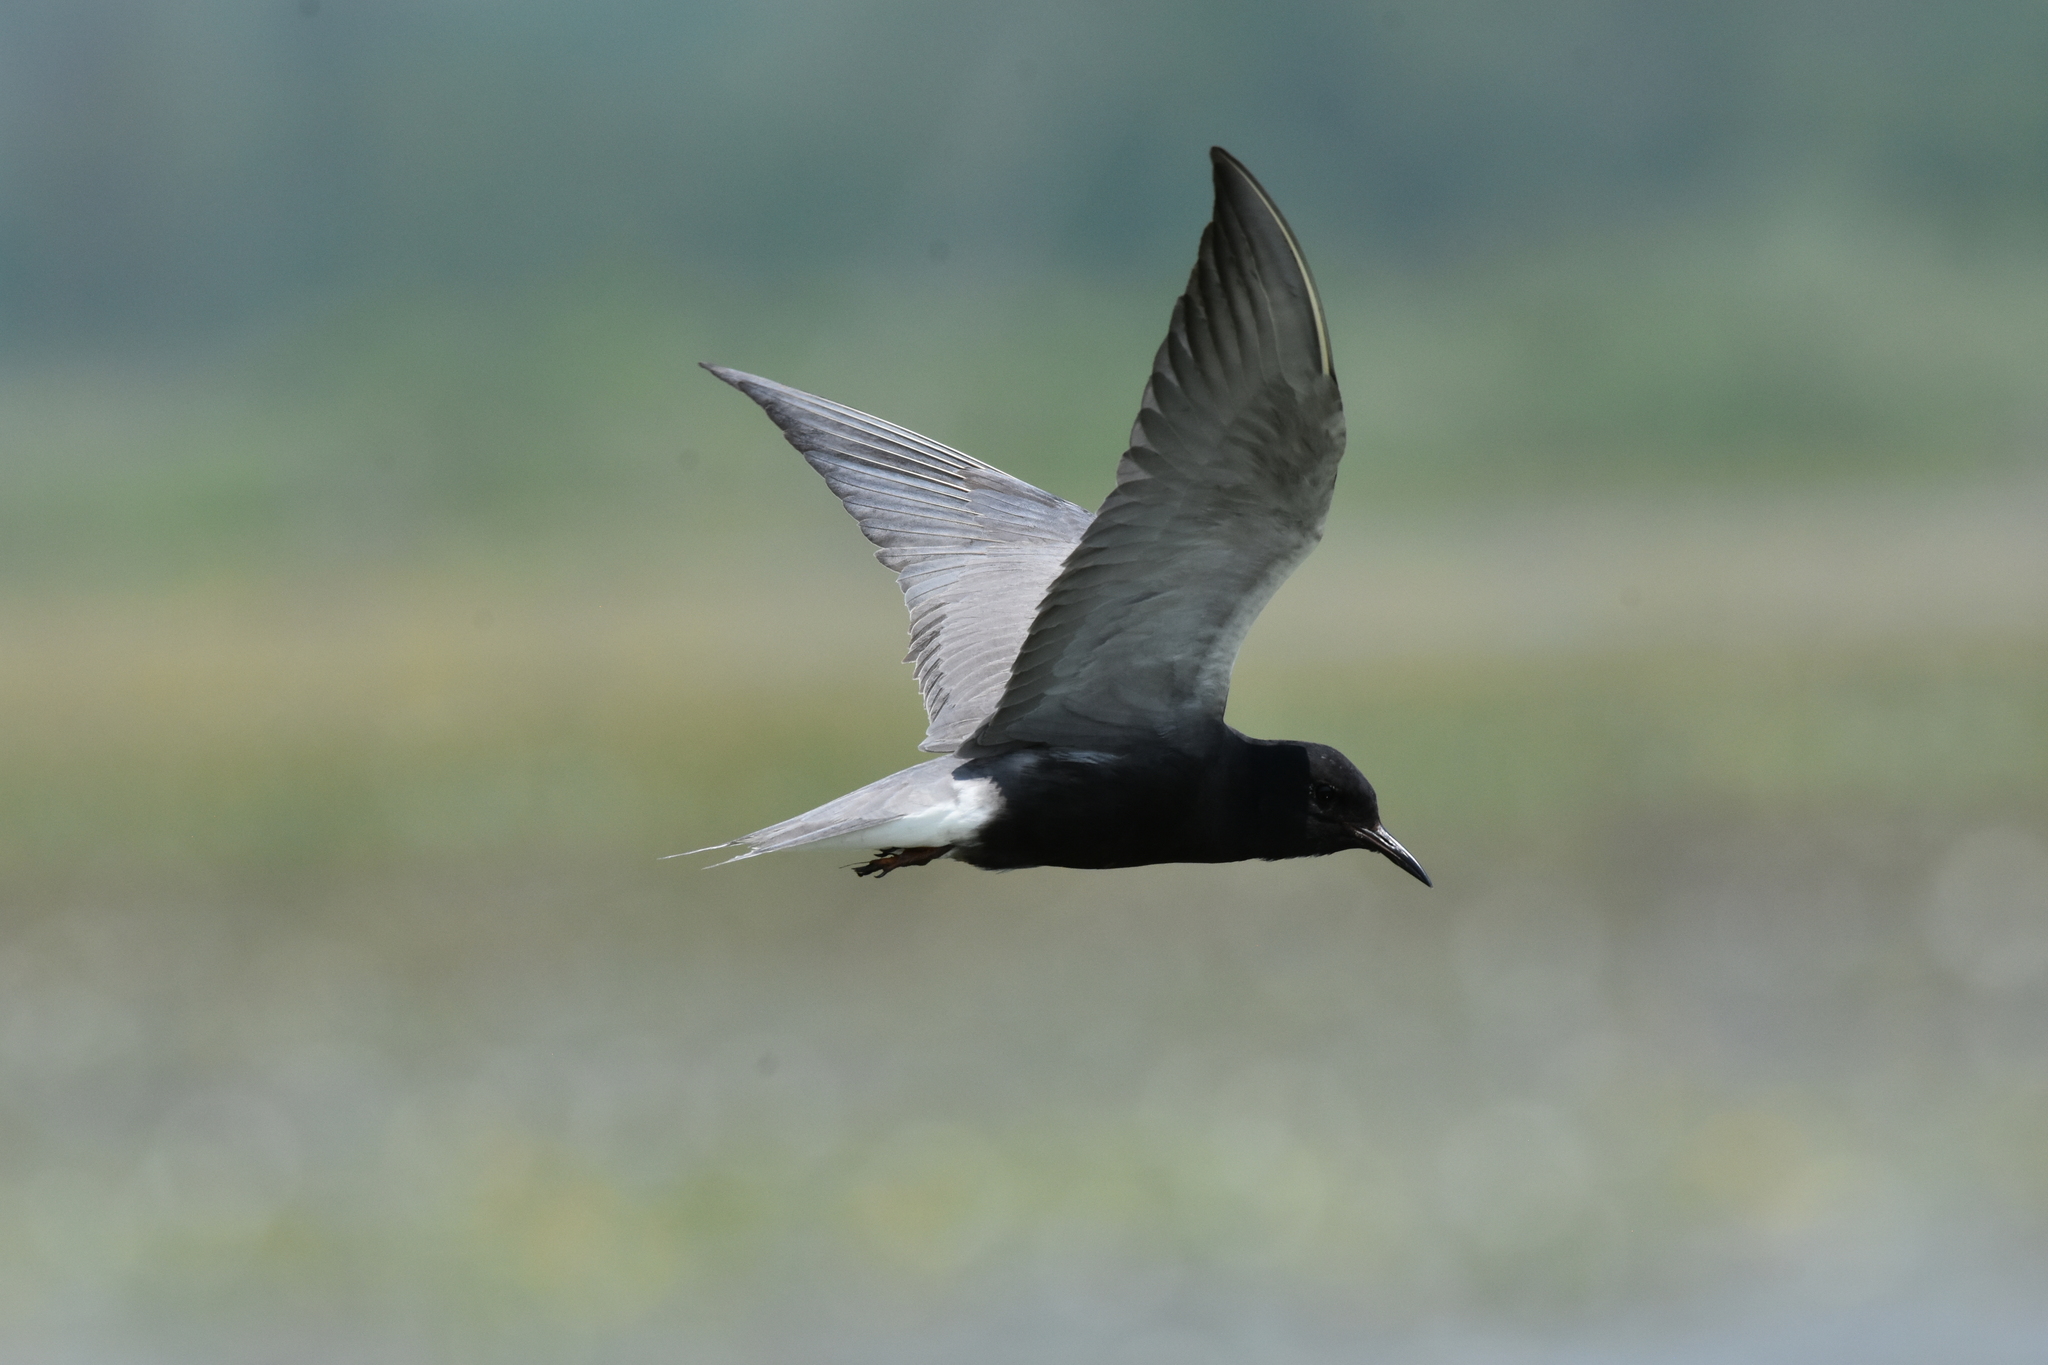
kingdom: Animalia
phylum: Chordata
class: Aves
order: Charadriiformes
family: Laridae
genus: Chlidonias
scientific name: Chlidonias niger
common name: Black tern
